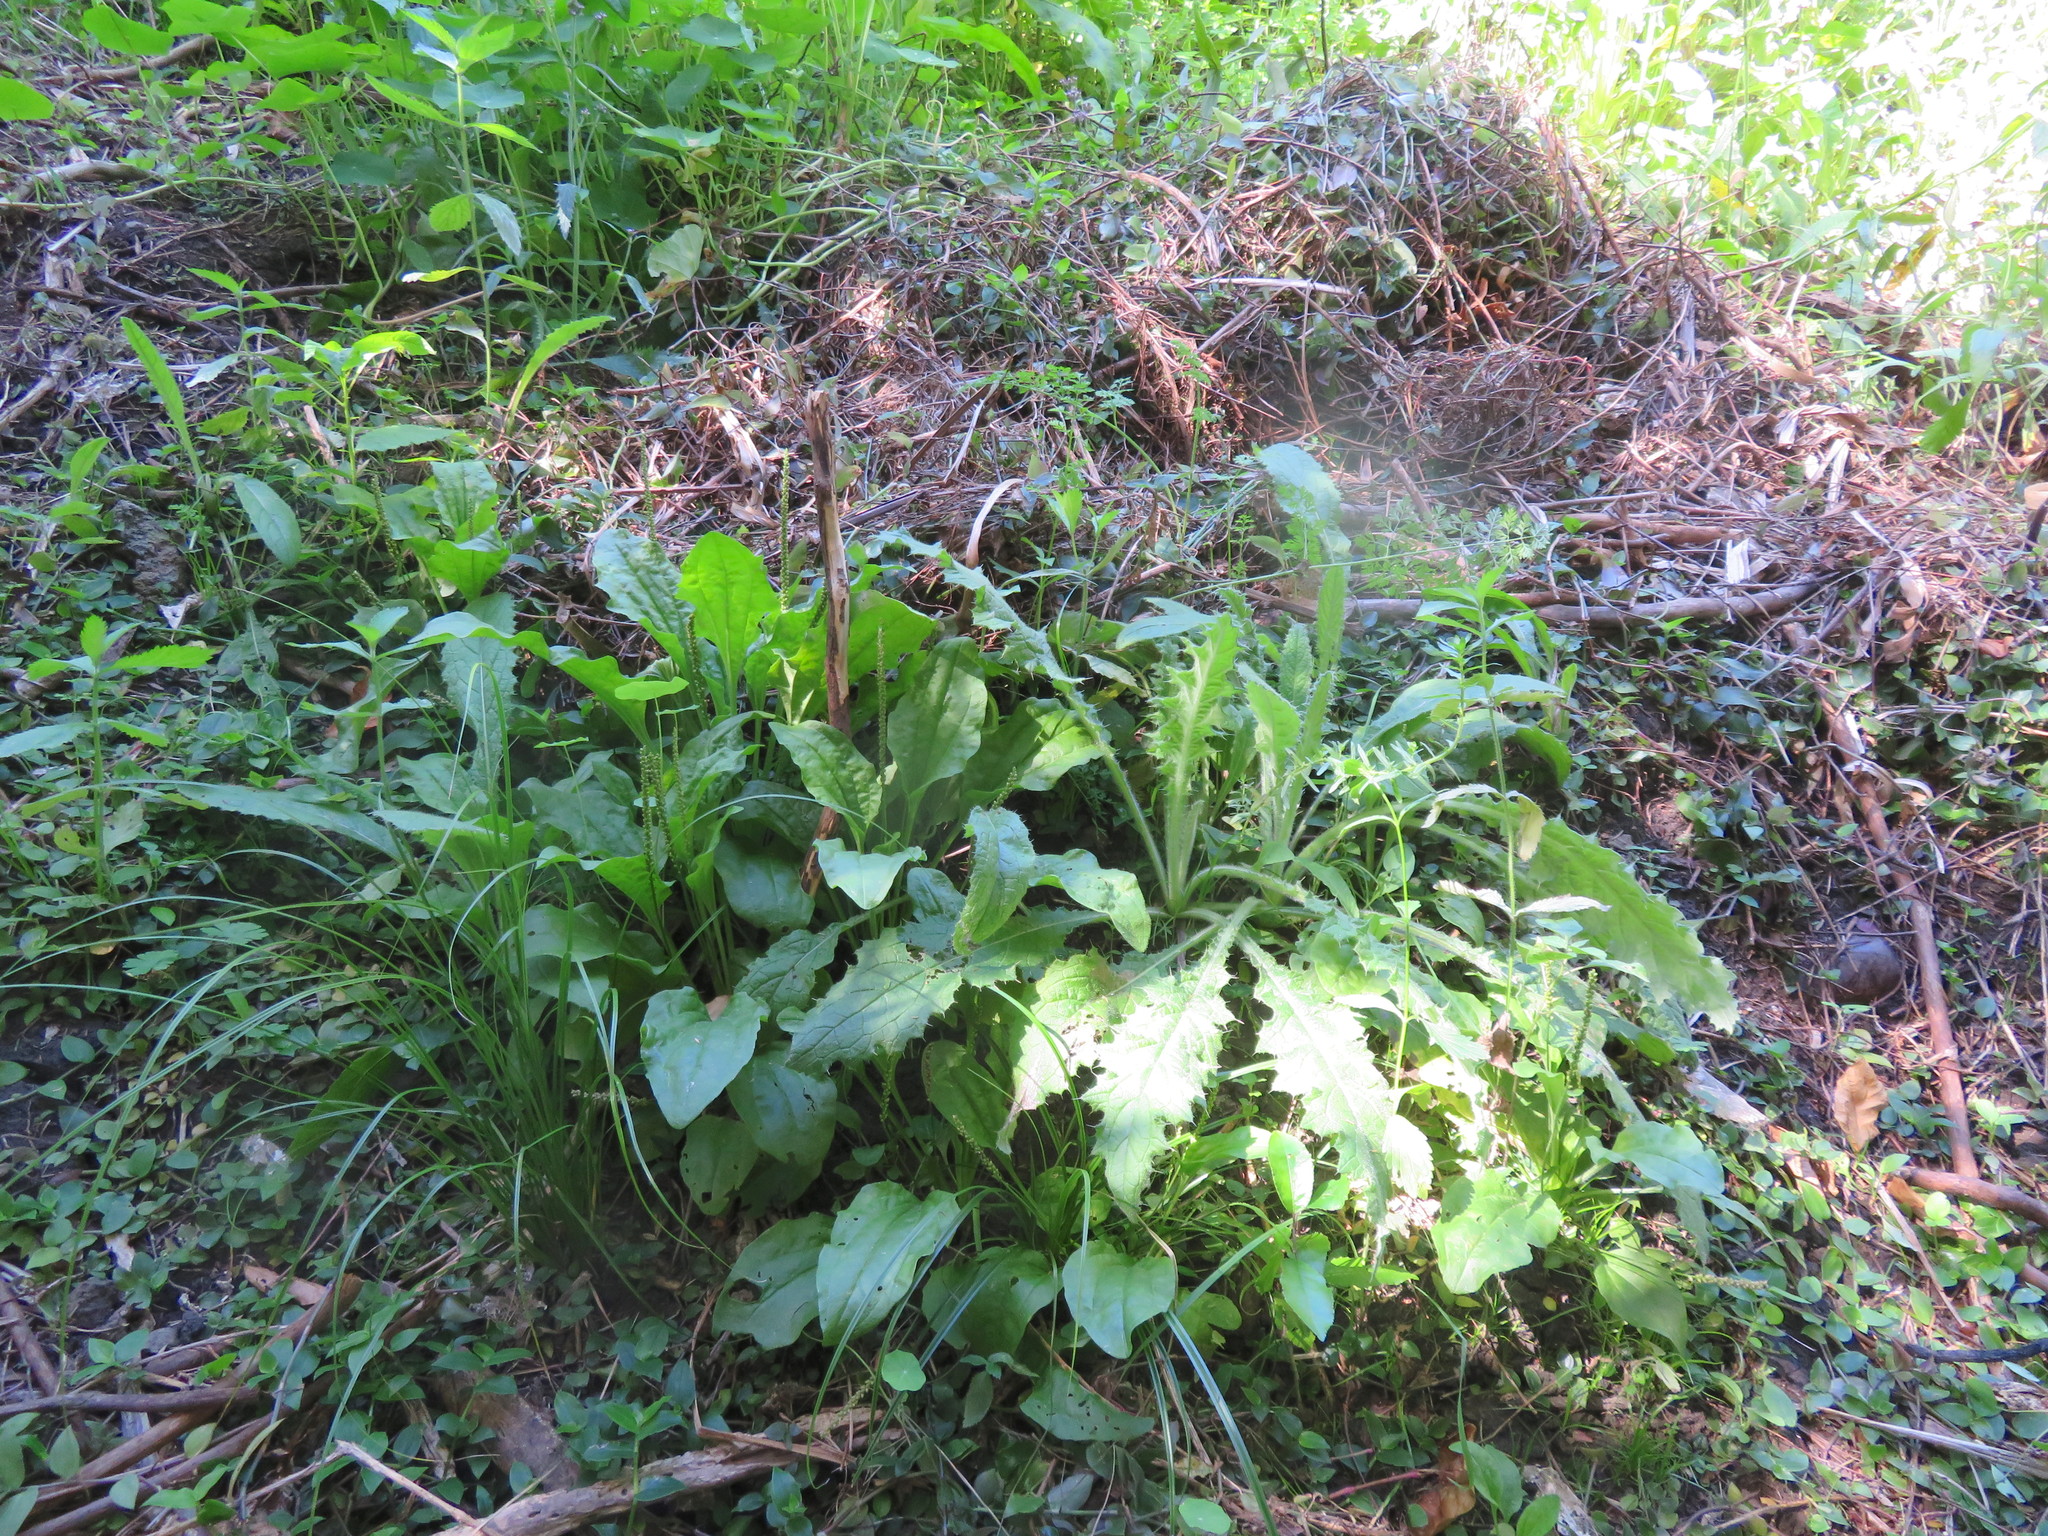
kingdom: Plantae
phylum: Tracheophyta
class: Magnoliopsida
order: Asterales
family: Asteraceae
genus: Cirsium
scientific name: Cirsium vulgare
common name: Bull thistle
